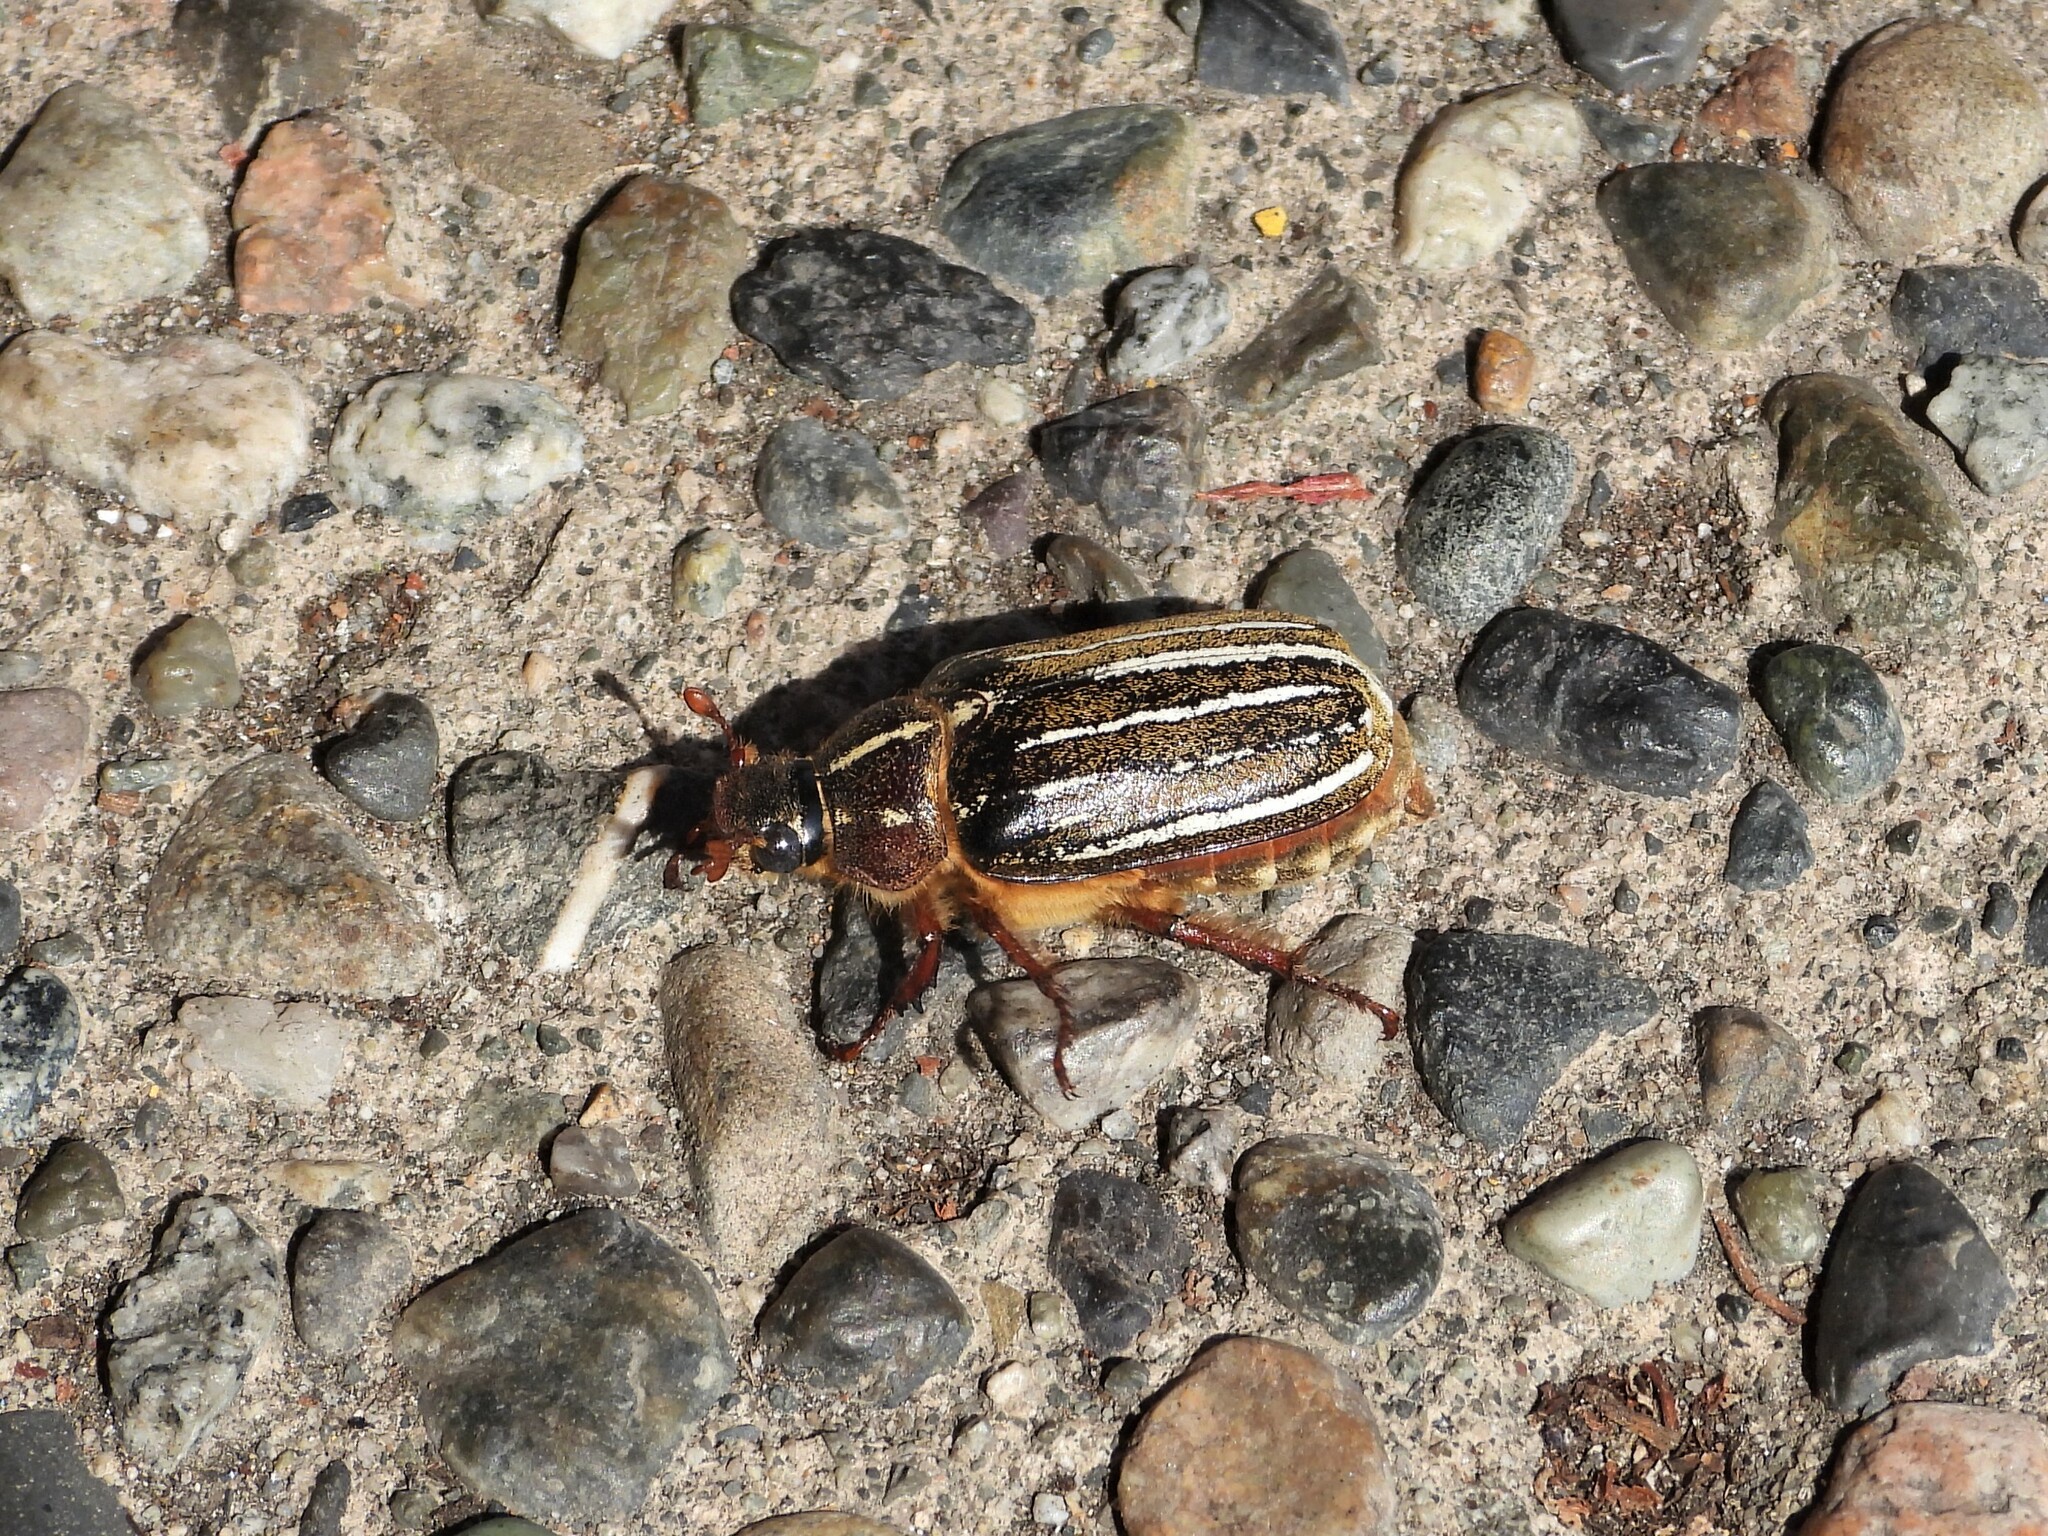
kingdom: Animalia
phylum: Arthropoda
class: Insecta
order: Coleoptera
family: Scarabaeidae
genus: Polyphylla
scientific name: Polyphylla crinita
